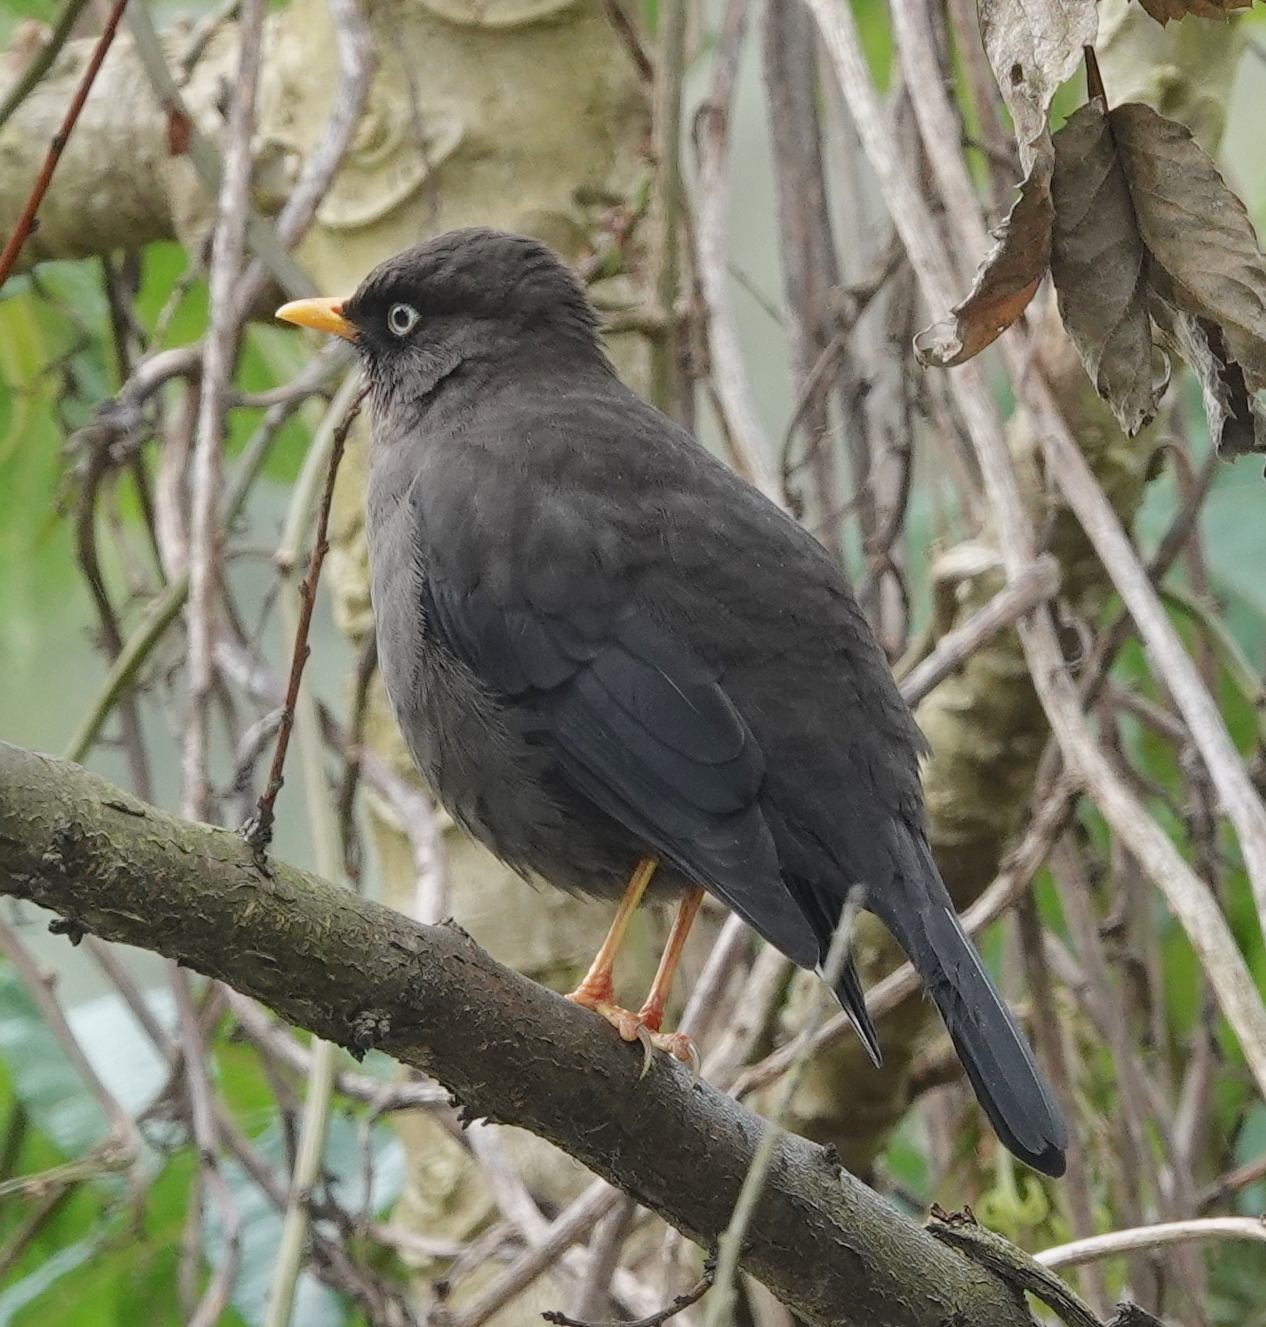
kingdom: Animalia
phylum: Chordata
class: Aves
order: Passeriformes
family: Turdidae
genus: Turdus
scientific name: Turdus nigrescens
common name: Sooty thrush
